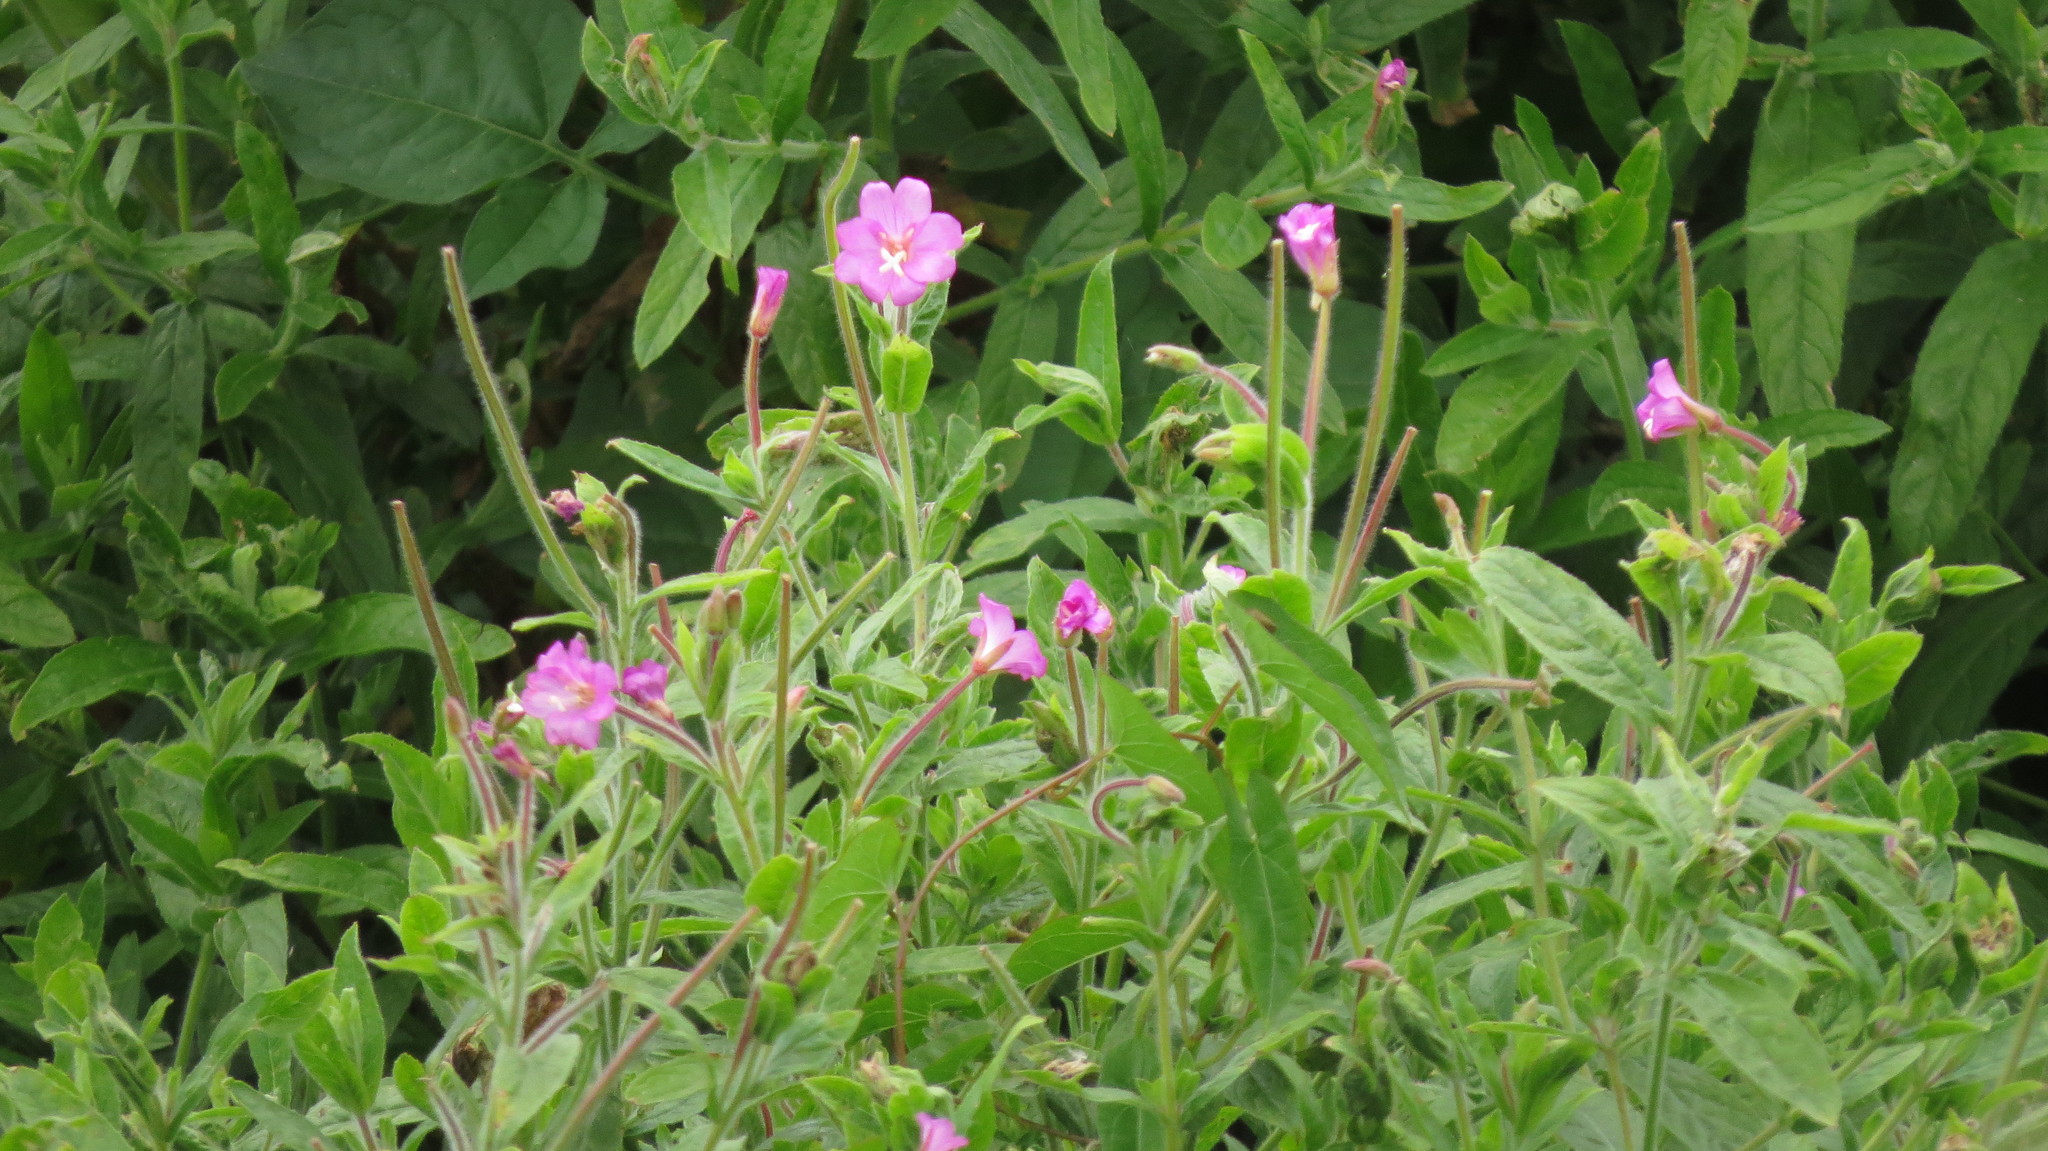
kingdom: Plantae
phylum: Tracheophyta
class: Magnoliopsida
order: Myrtales
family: Onagraceae
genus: Epilobium
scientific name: Epilobium hirsutum
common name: Great willowherb
